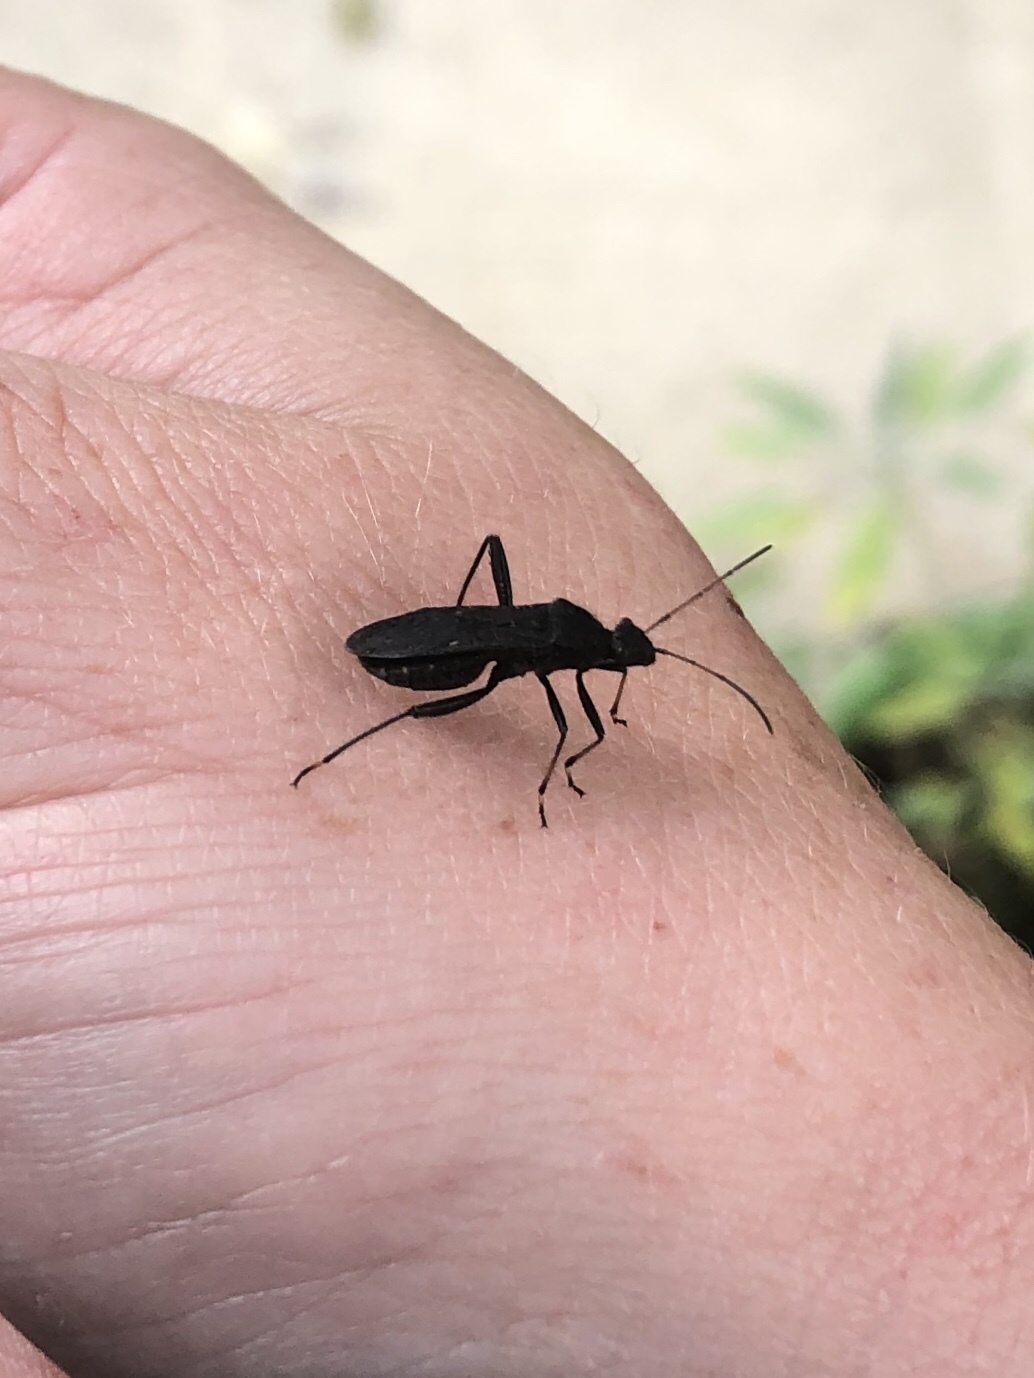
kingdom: Animalia
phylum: Arthropoda
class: Insecta
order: Hemiptera
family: Alydidae
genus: Alydus
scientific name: Alydus eurinus
